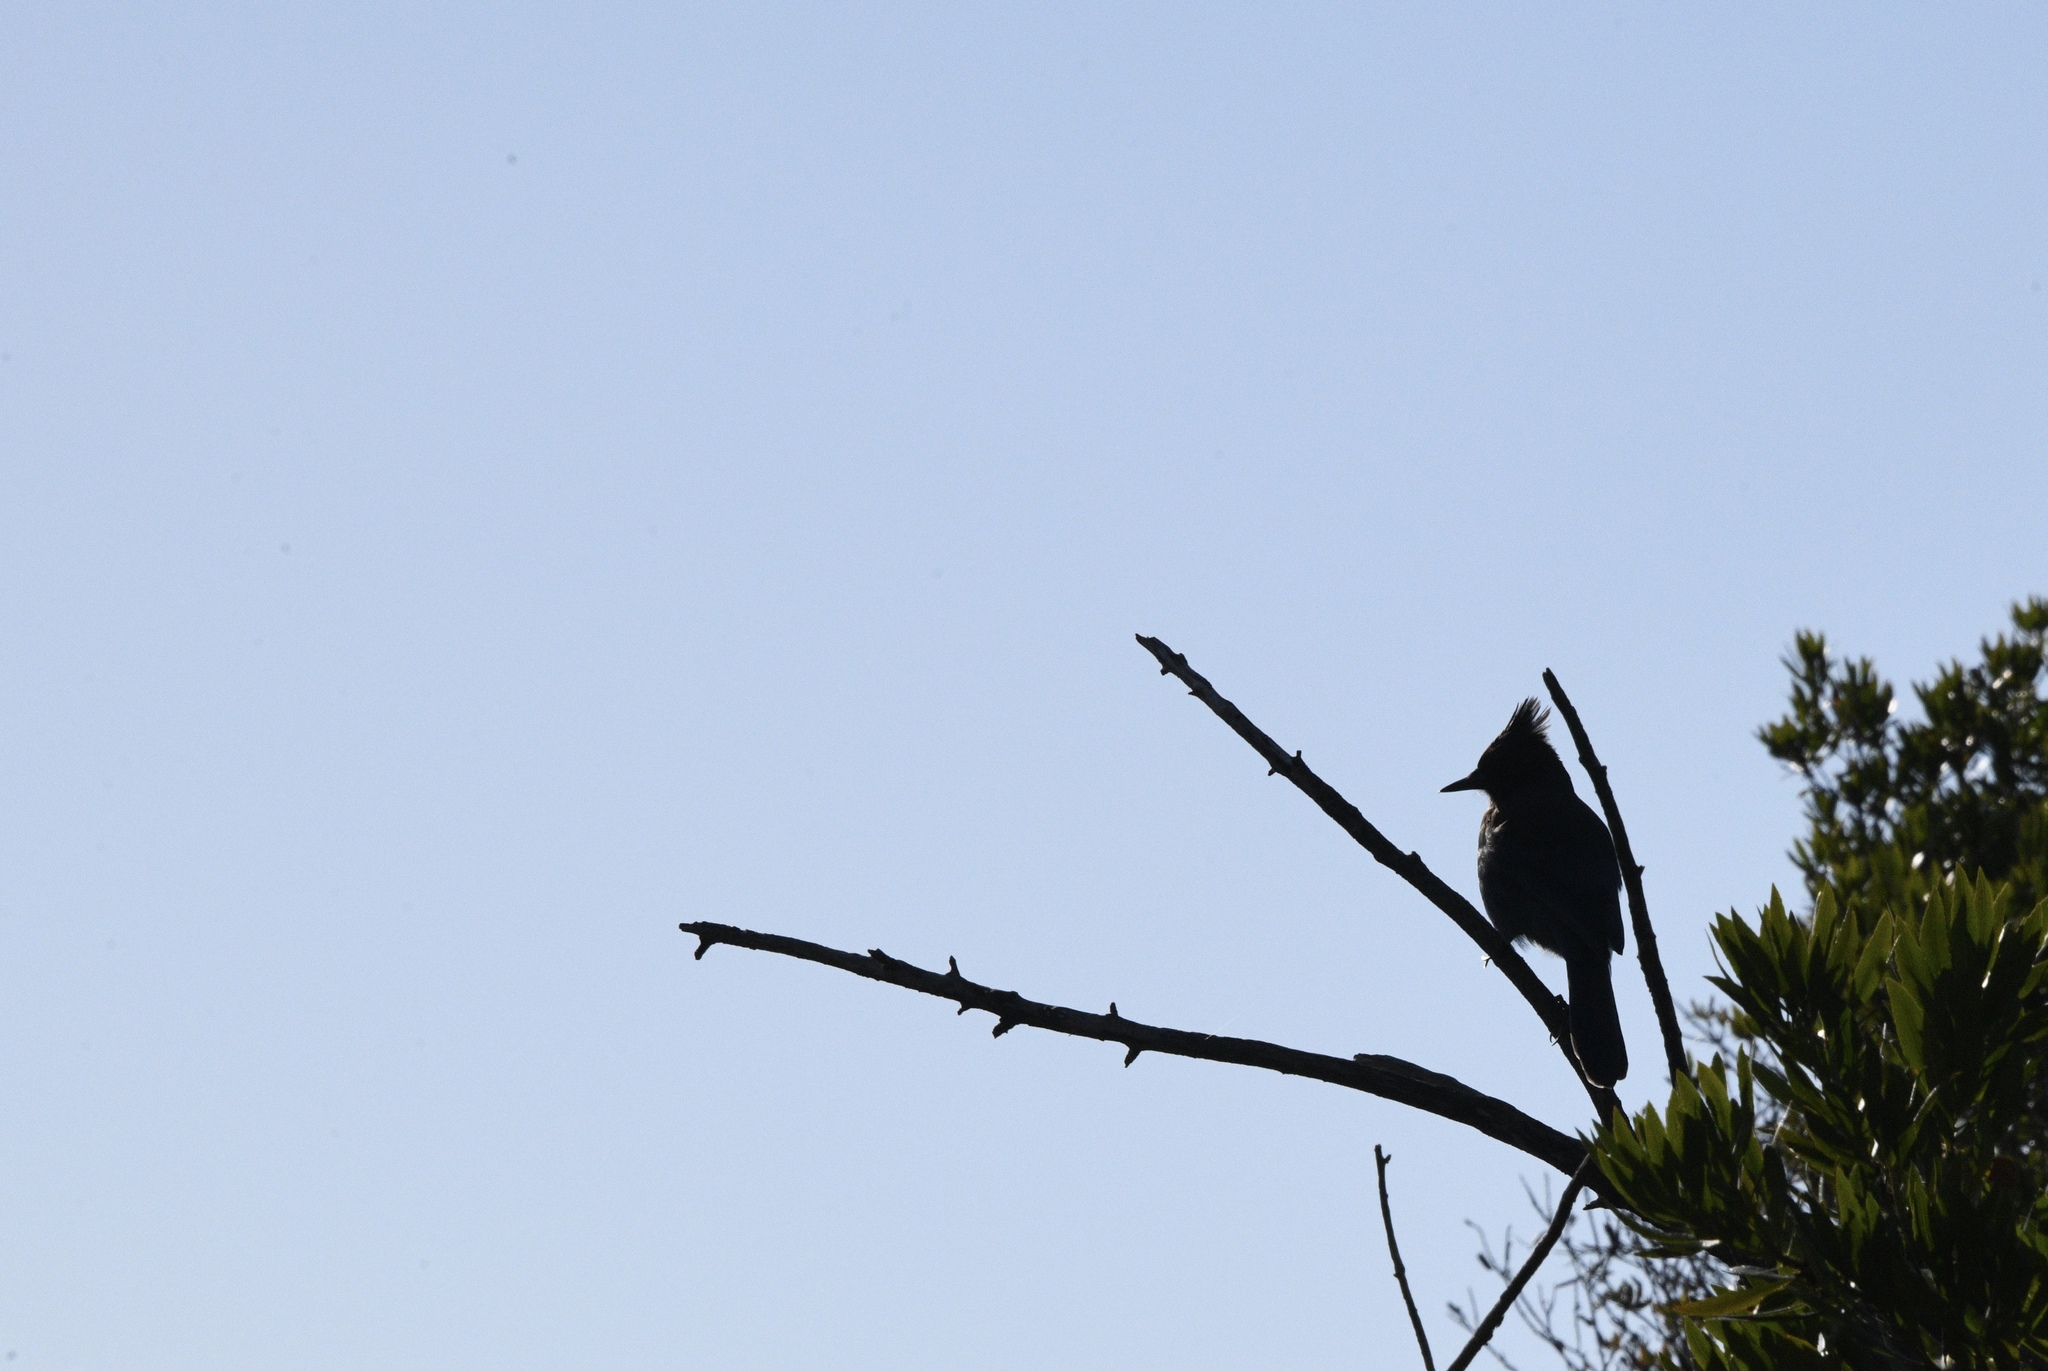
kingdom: Animalia
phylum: Chordata
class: Aves
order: Passeriformes
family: Corvidae
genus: Cyanocitta
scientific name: Cyanocitta stelleri
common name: Steller's jay
